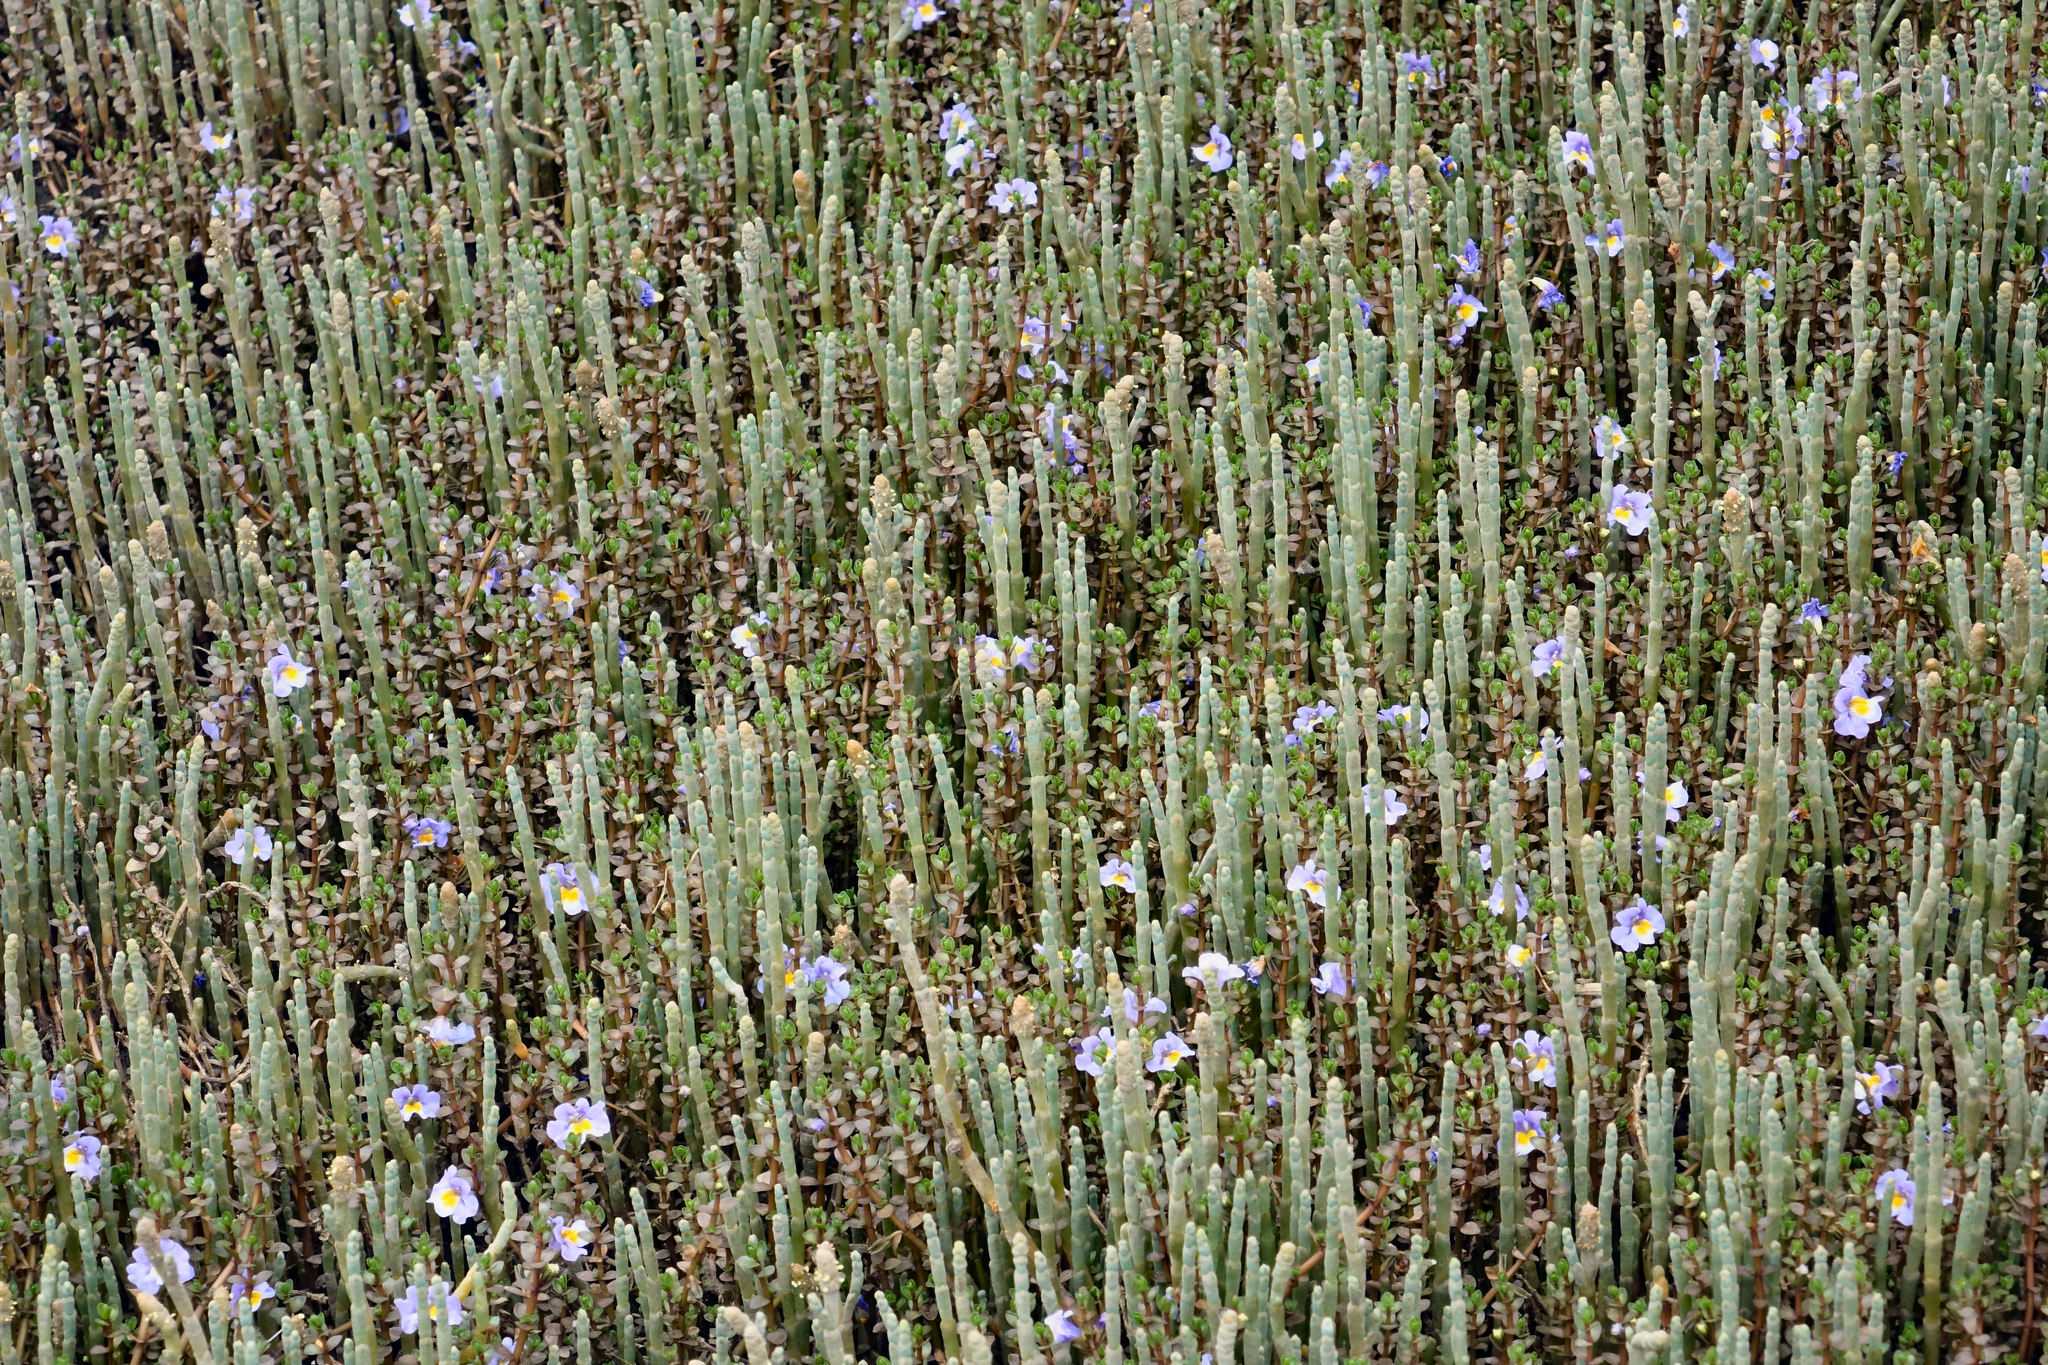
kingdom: Plantae
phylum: Tracheophyta
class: Magnoliopsida
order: Lamiales
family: Phrymaceae
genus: Thyridia
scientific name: Thyridia repens
